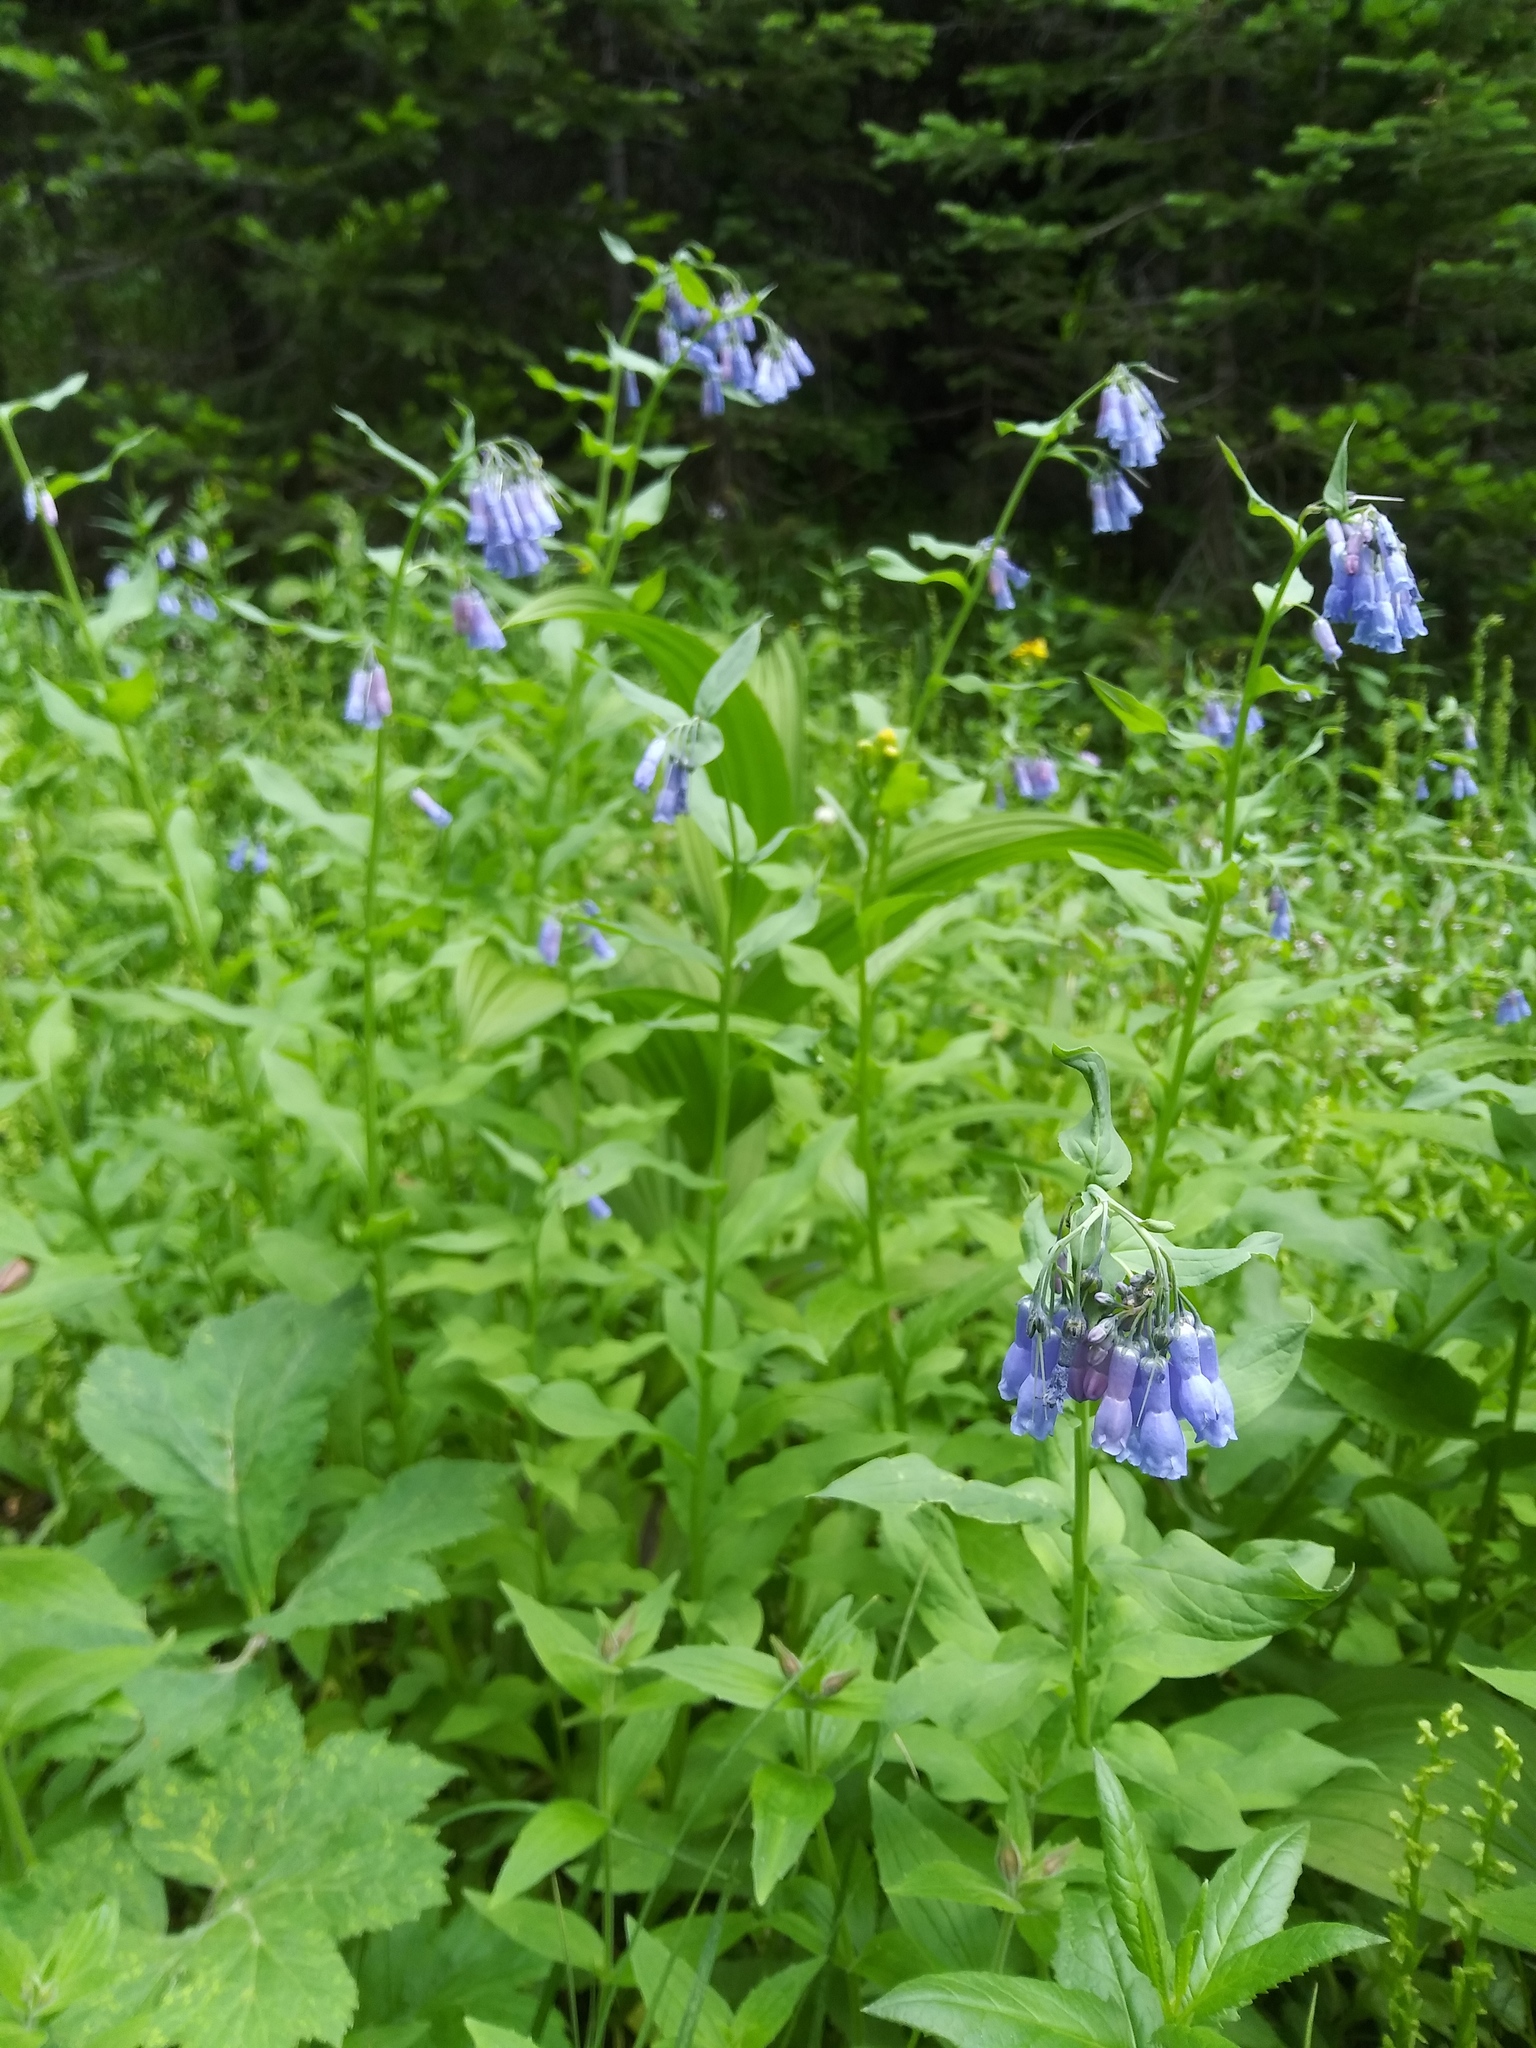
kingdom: Plantae
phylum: Tracheophyta
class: Magnoliopsida
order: Boraginales
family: Boraginaceae
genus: Mertensia
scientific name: Mertensia ciliata
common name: Tall chiming-bells
